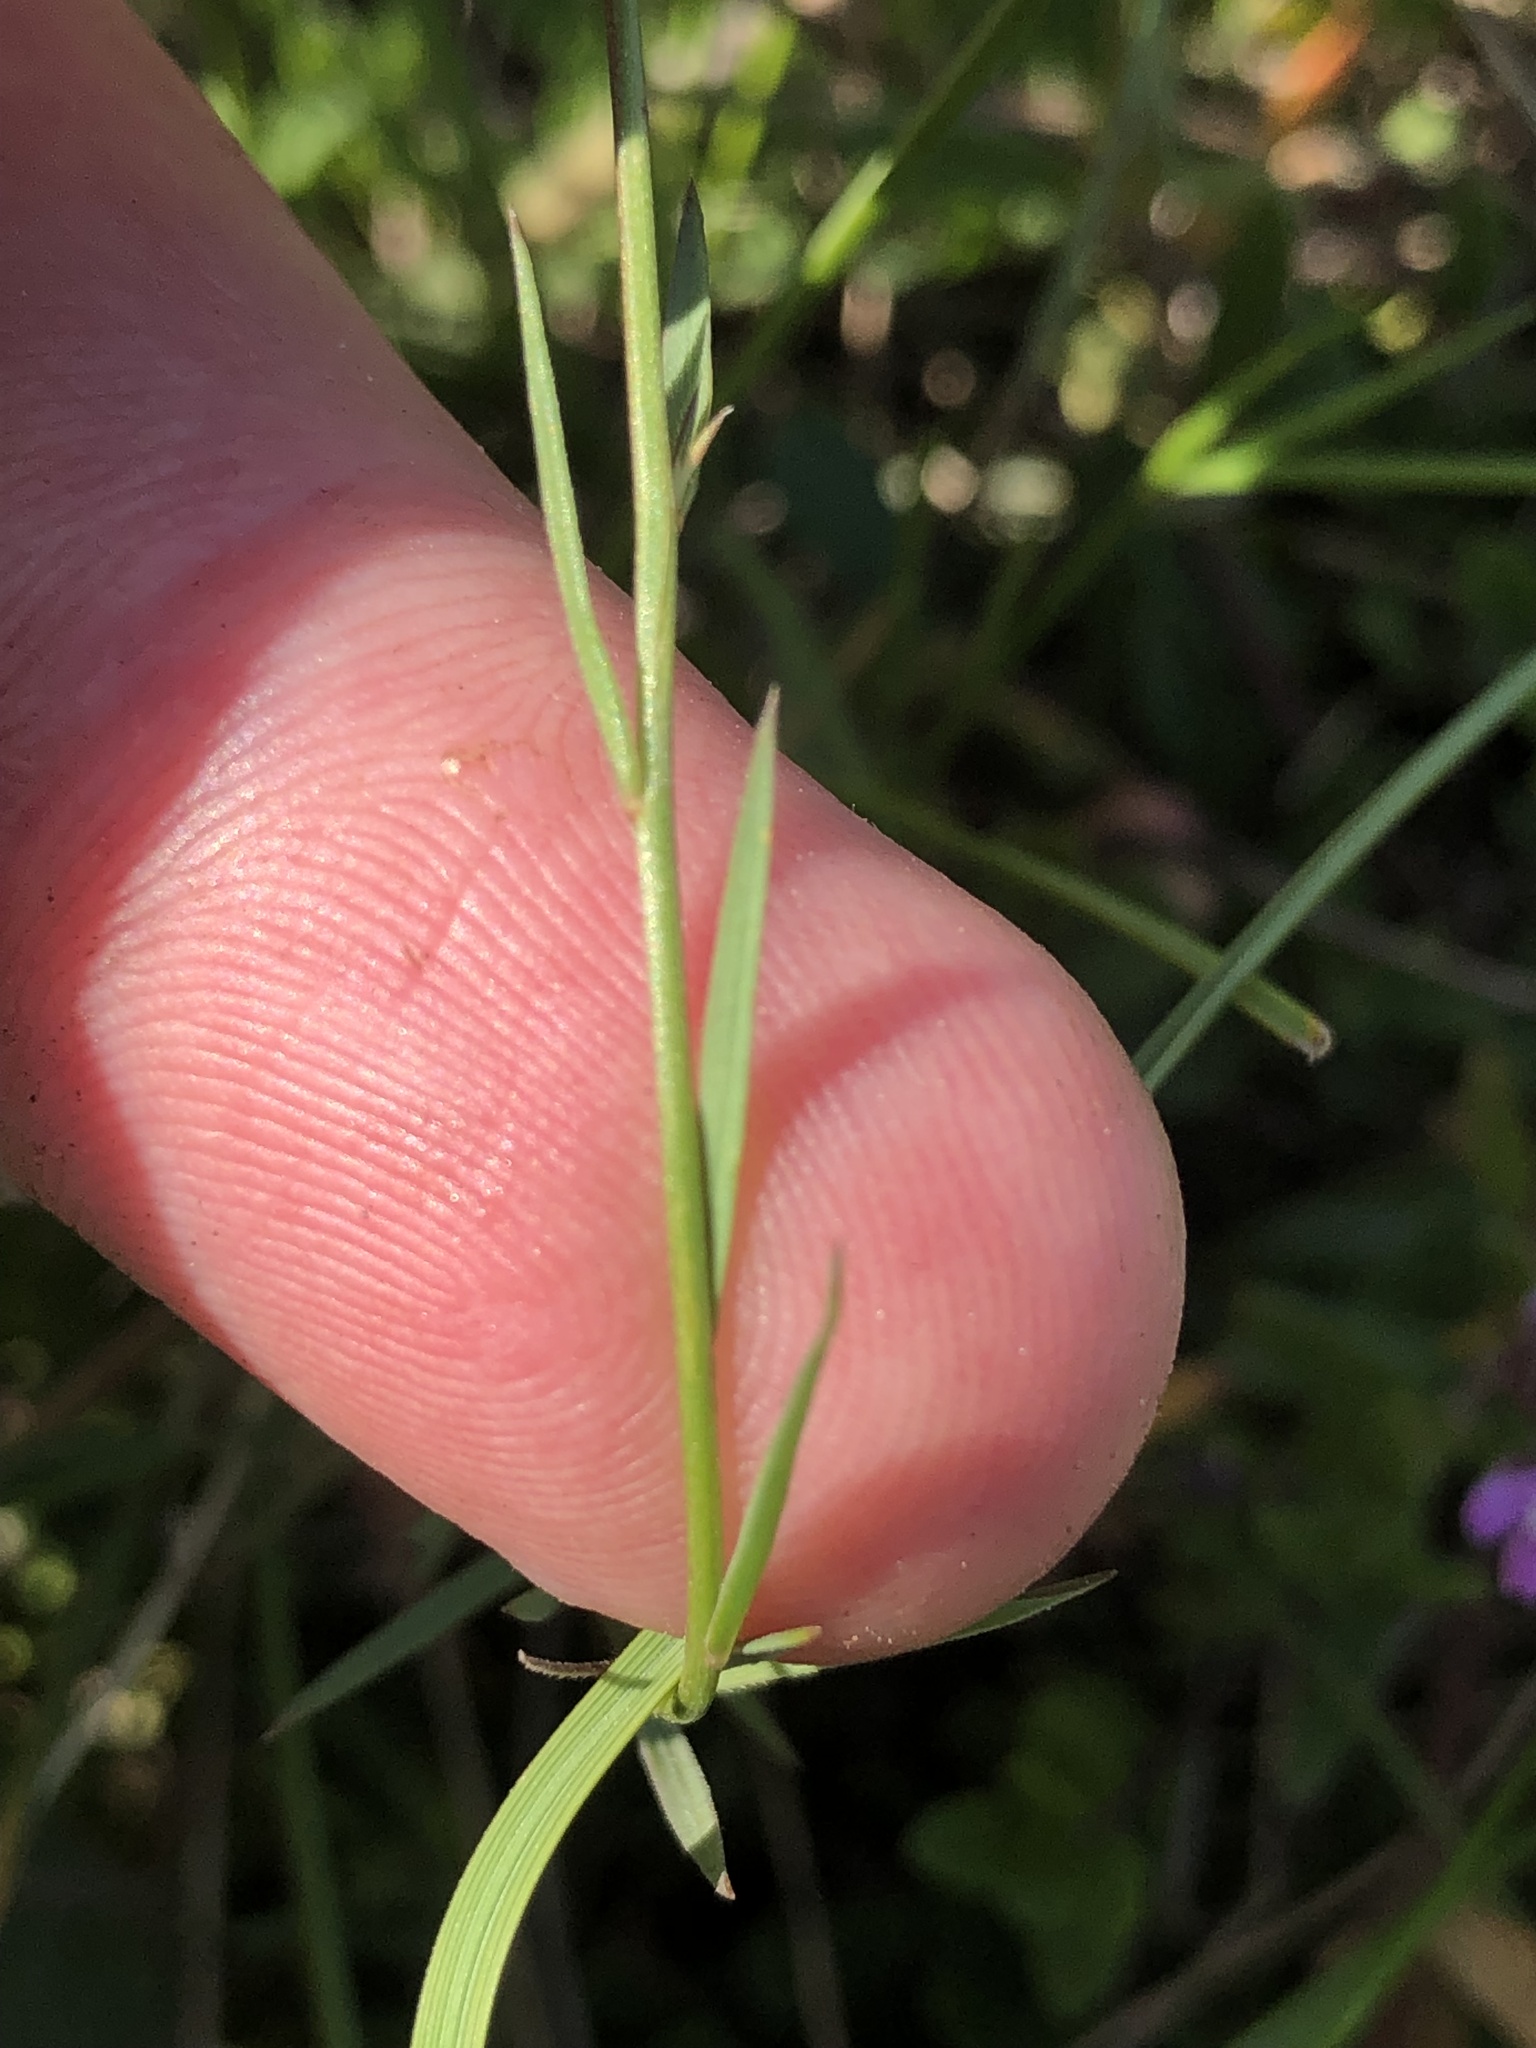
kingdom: Plantae
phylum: Tracheophyta
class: Magnoliopsida
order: Malpighiales
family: Linaceae
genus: Linum
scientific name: Linum tenuifolium
